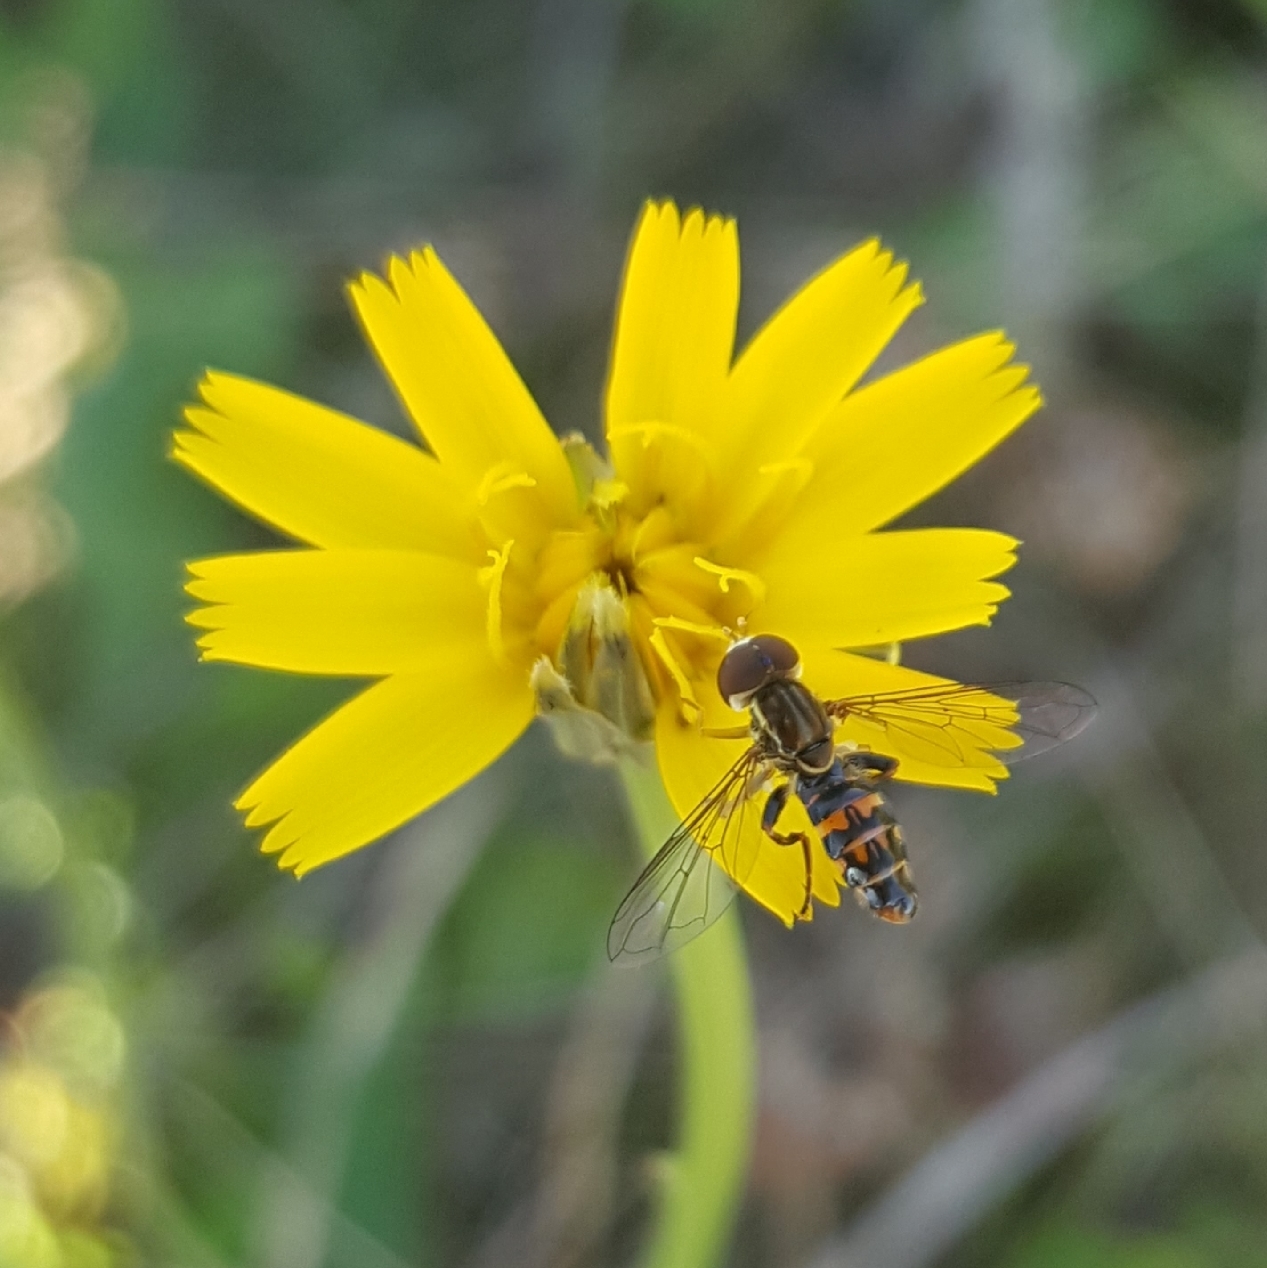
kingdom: Animalia
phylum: Arthropoda
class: Insecta
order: Diptera
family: Syrphidae
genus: Toxomerus
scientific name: Toxomerus occidentalis
